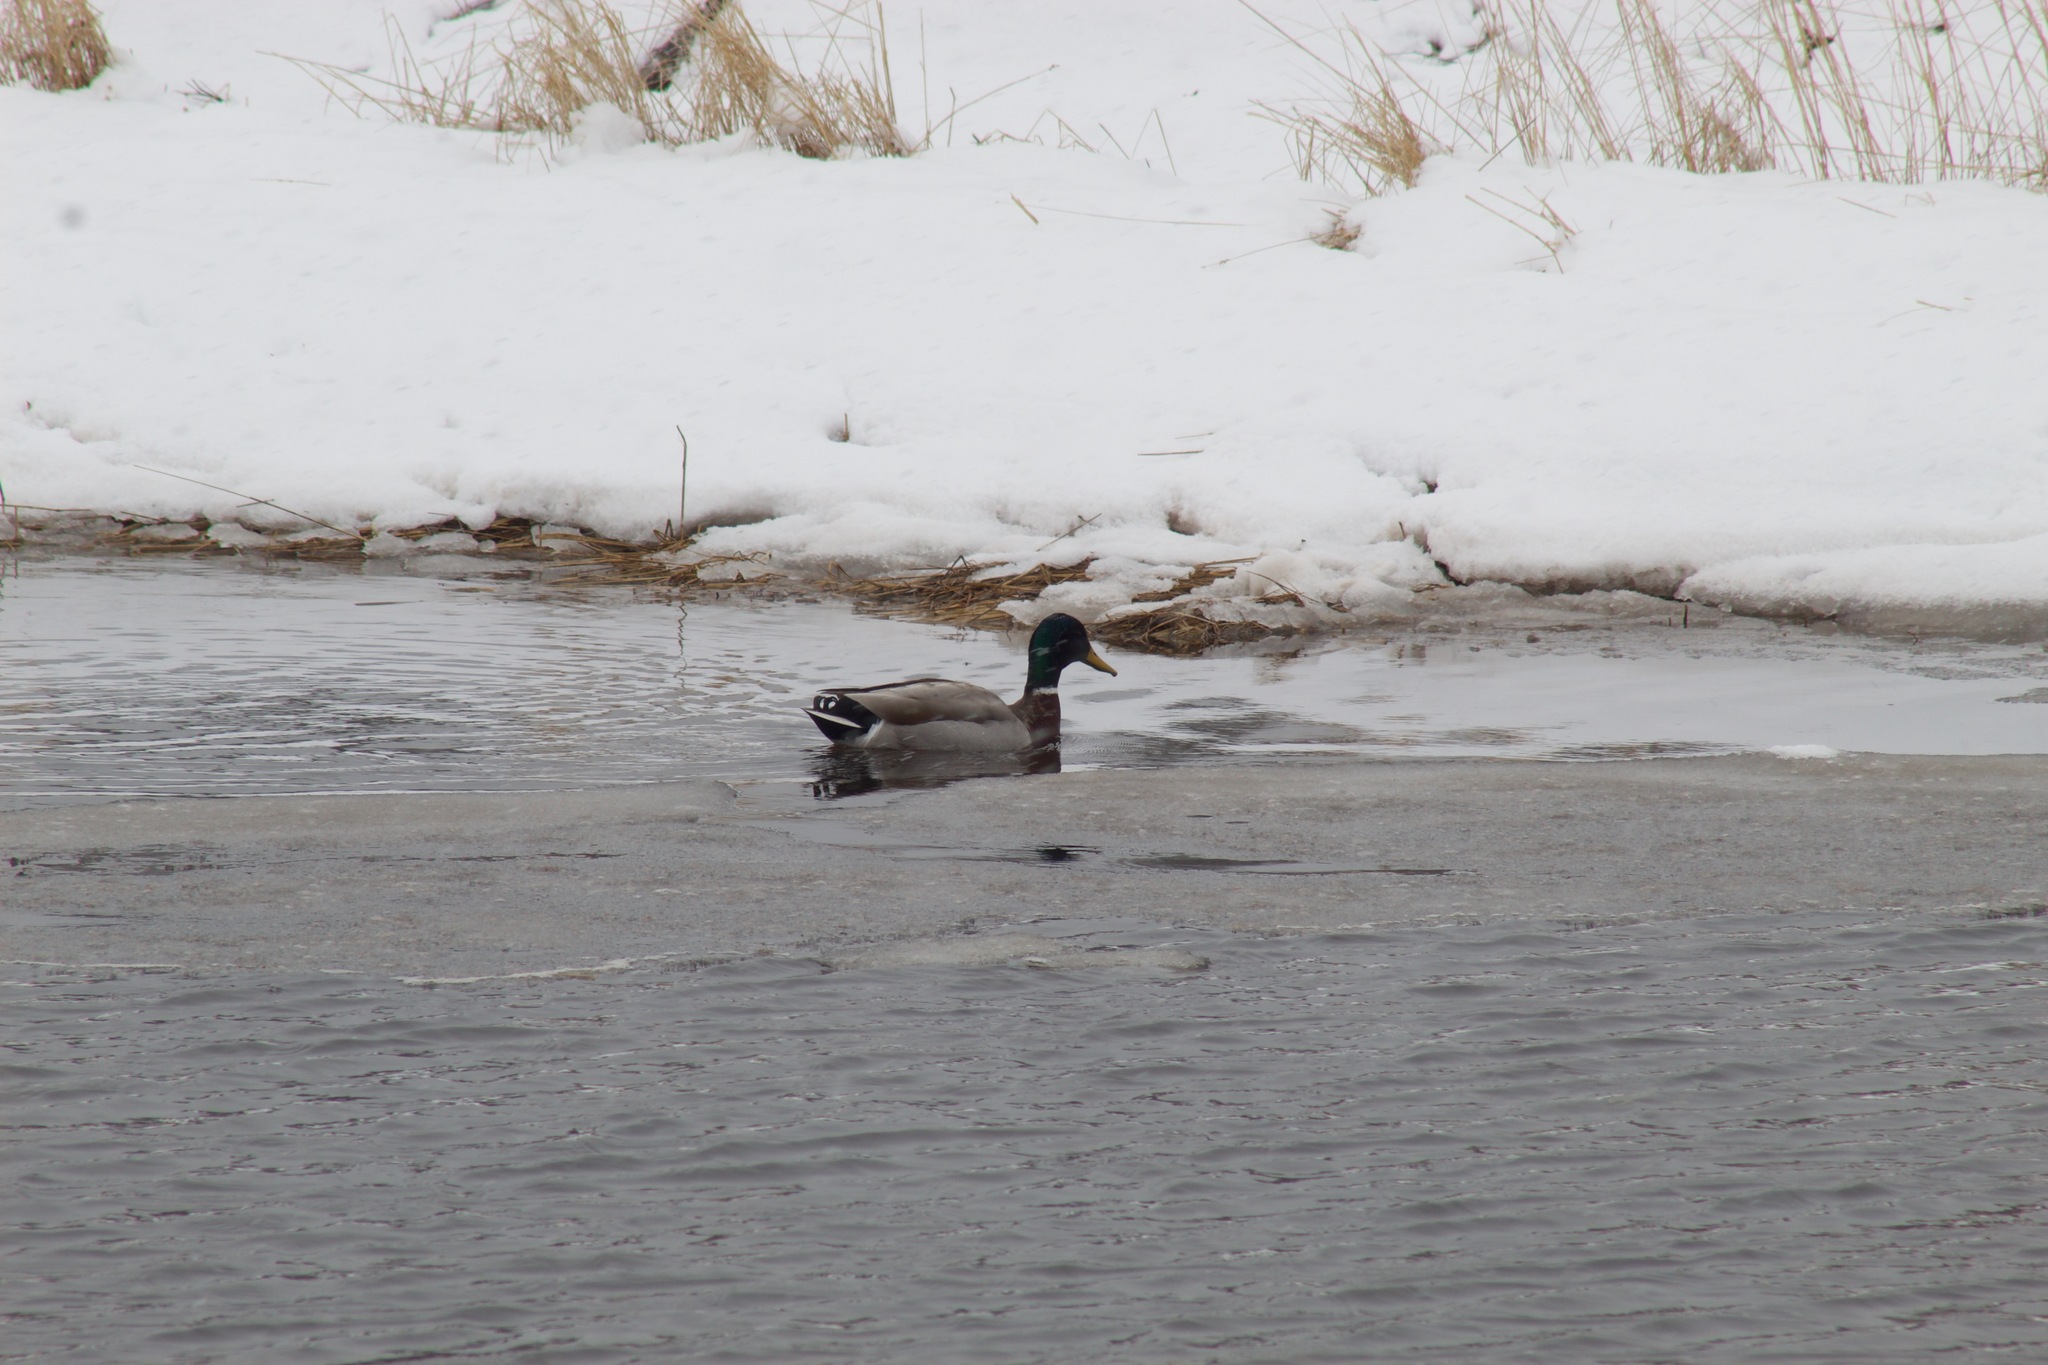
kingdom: Animalia
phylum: Chordata
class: Aves
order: Anseriformes
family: Anatidae
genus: Anas
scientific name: Anas platyrhynchos
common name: Mallard
